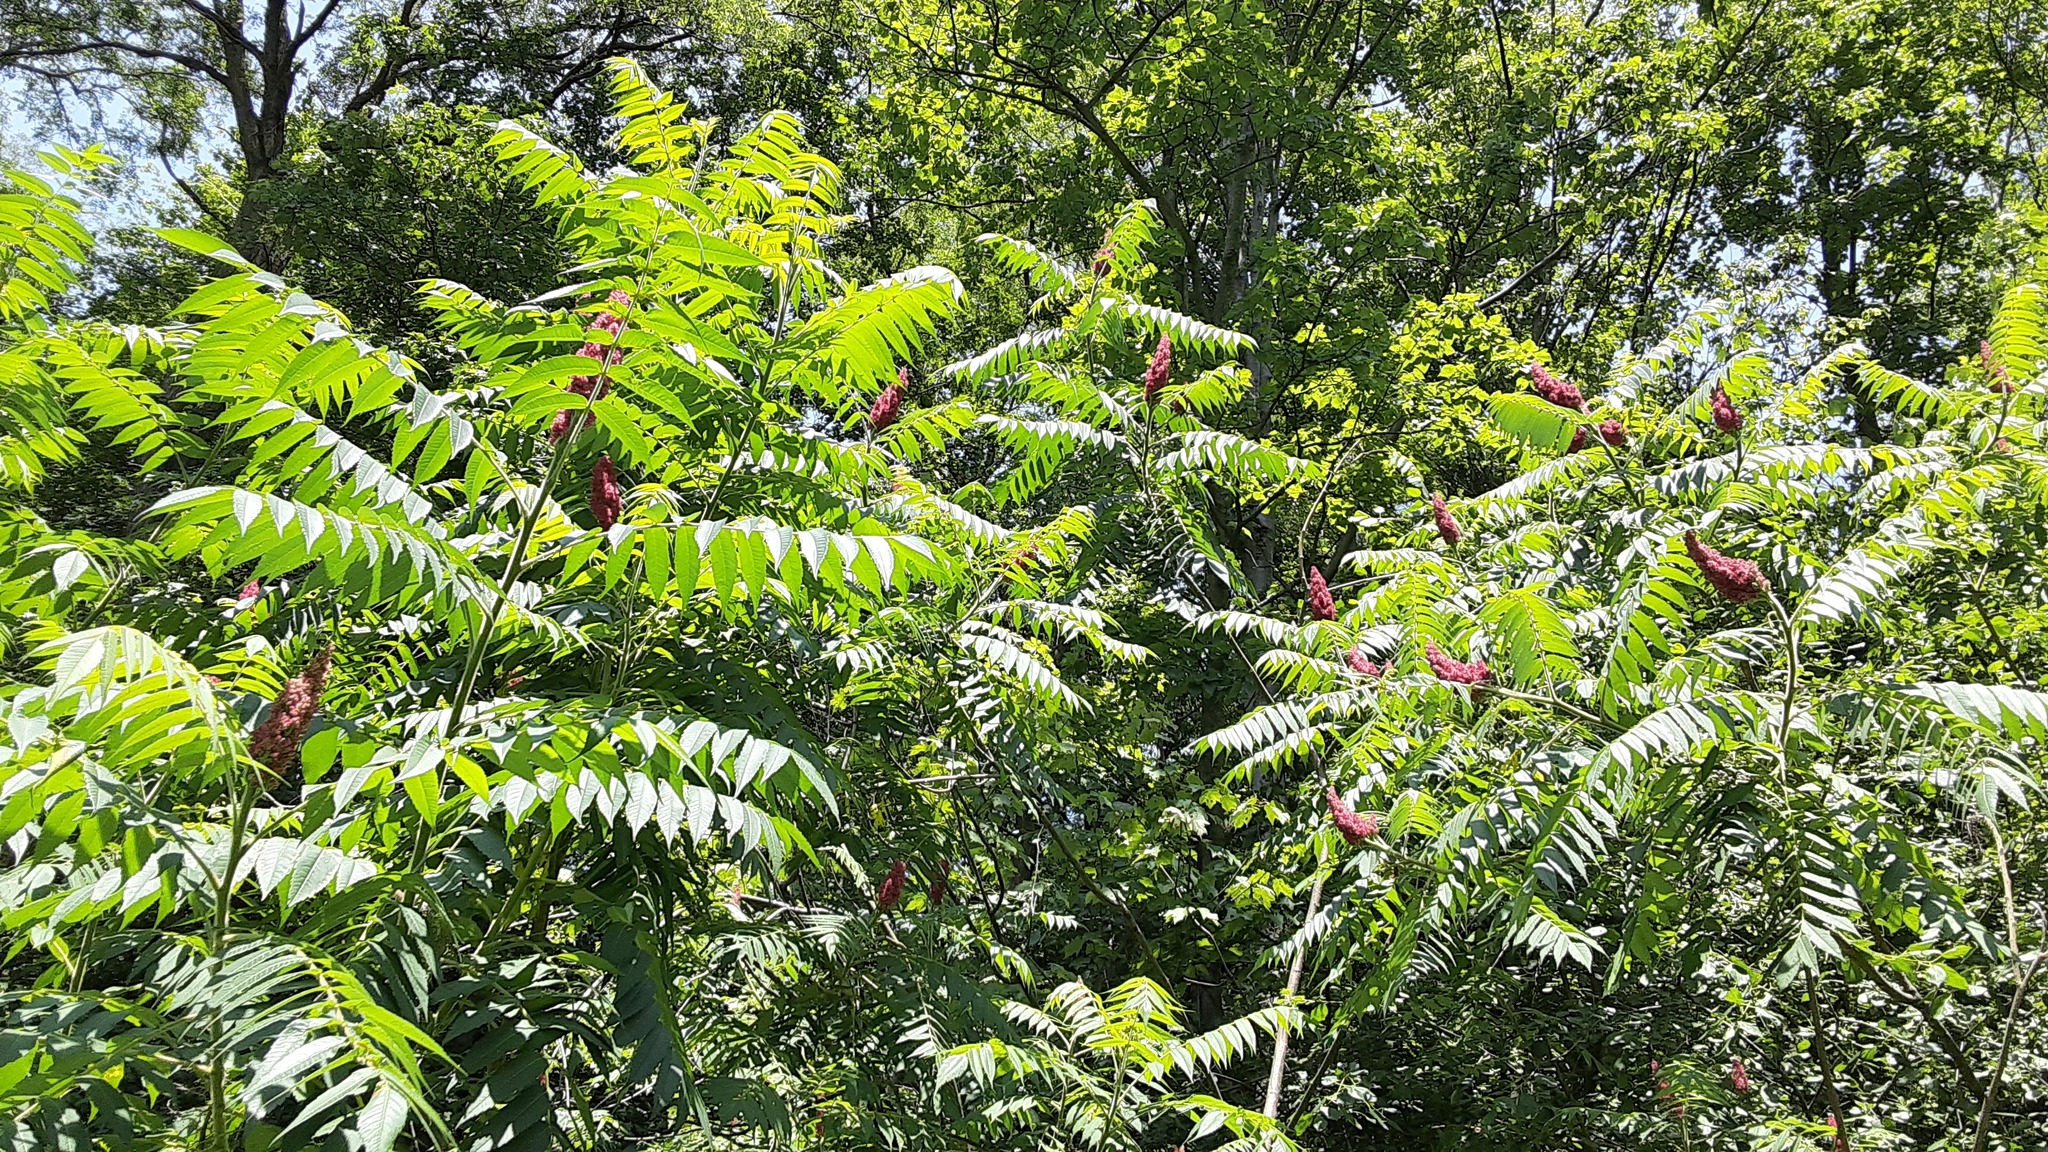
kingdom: Plantae
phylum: Tracheophyta
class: Magnoliopsida
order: Sapindales
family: Anacardiaceae
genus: Rhus
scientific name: Rhus typhina
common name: Staghorn sumac
